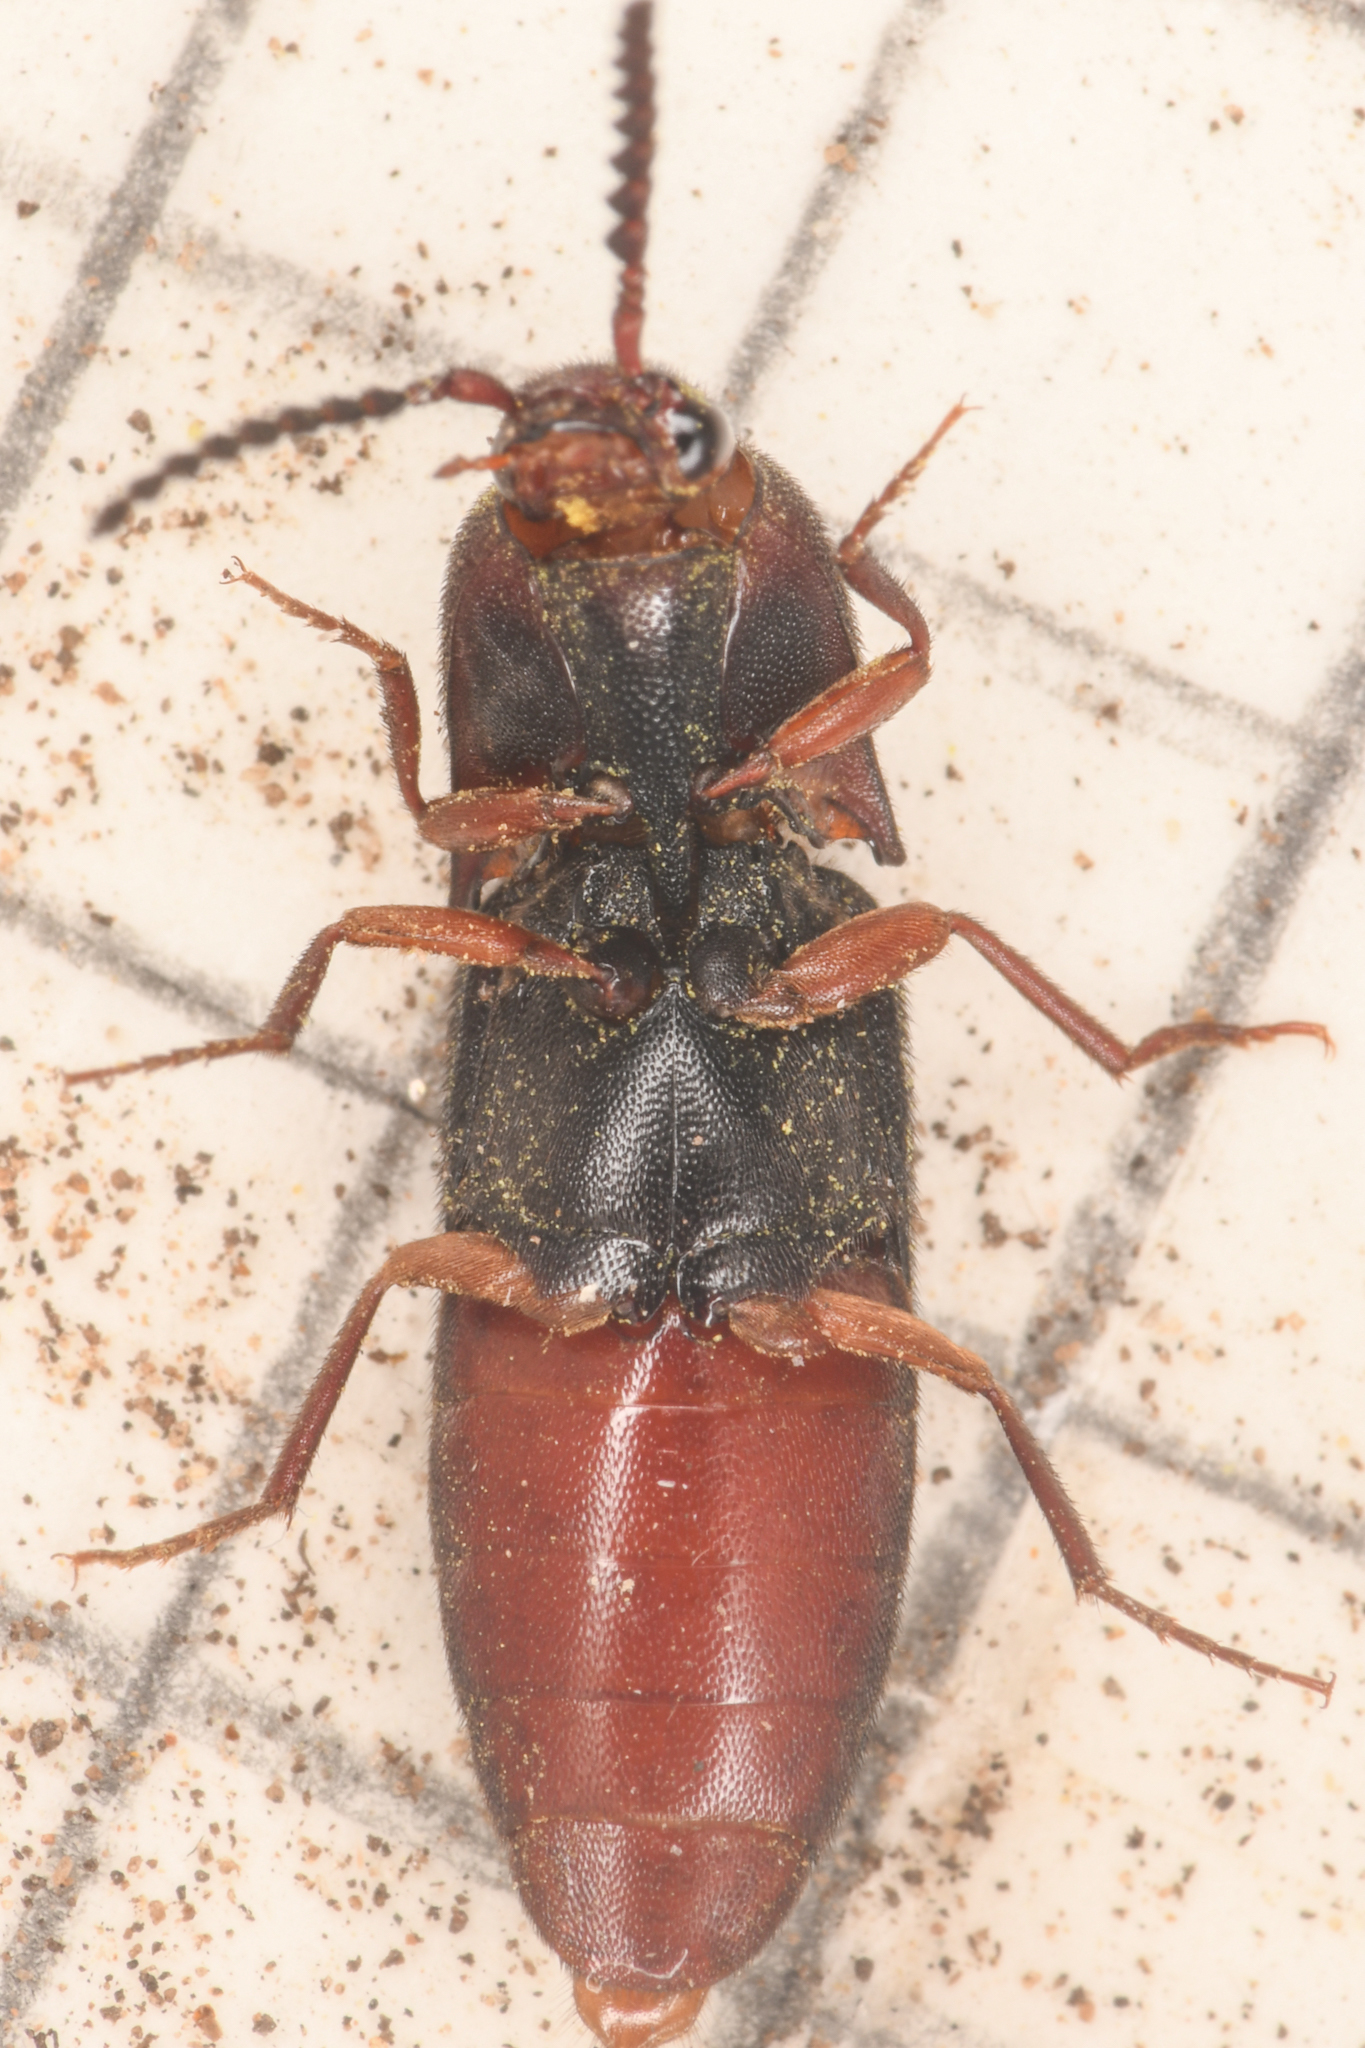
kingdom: Animalia
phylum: Arthropoda
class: Insecta
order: Coleoptera
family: Elateridae
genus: Megapenthes
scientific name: Megapenthes
